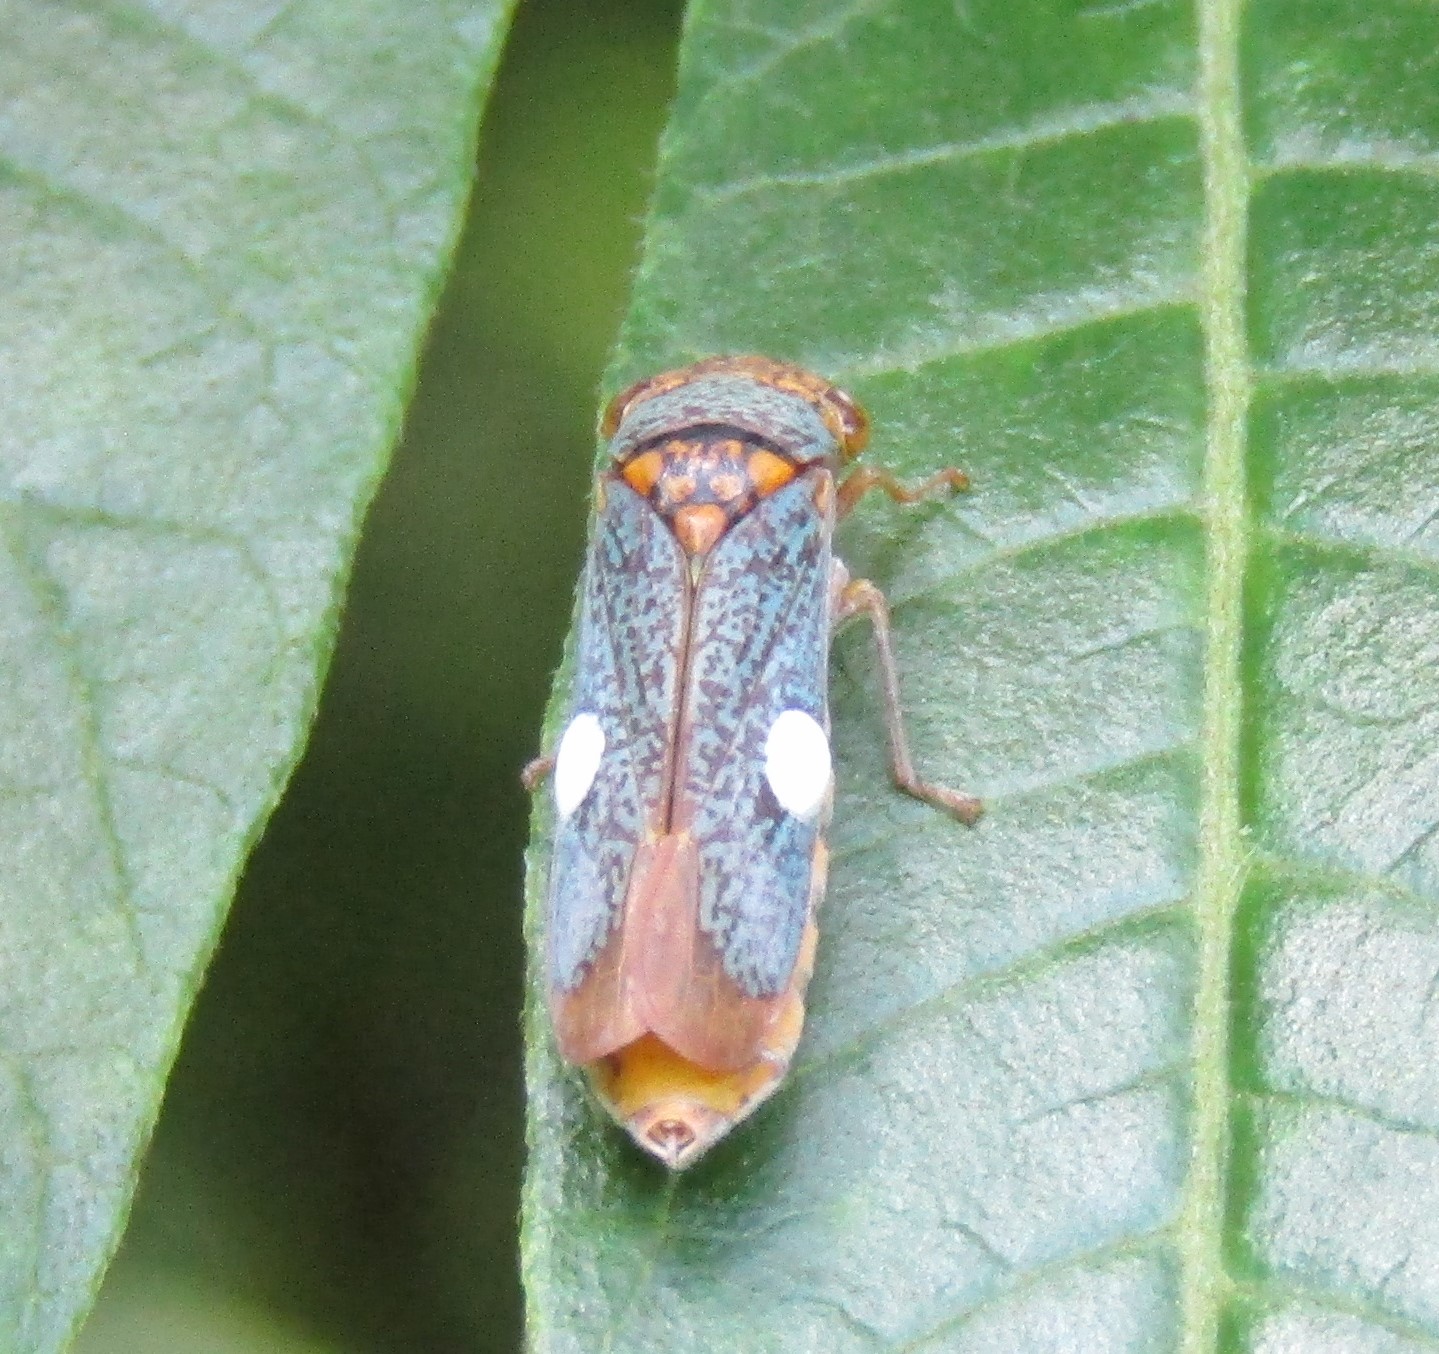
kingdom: Animalia
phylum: Arthropoda
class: Insecta
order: Hemiptera
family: Cicadellidae
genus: Oncometopia
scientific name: Oncometopia orbona
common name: Broad-headed sharpshooter
